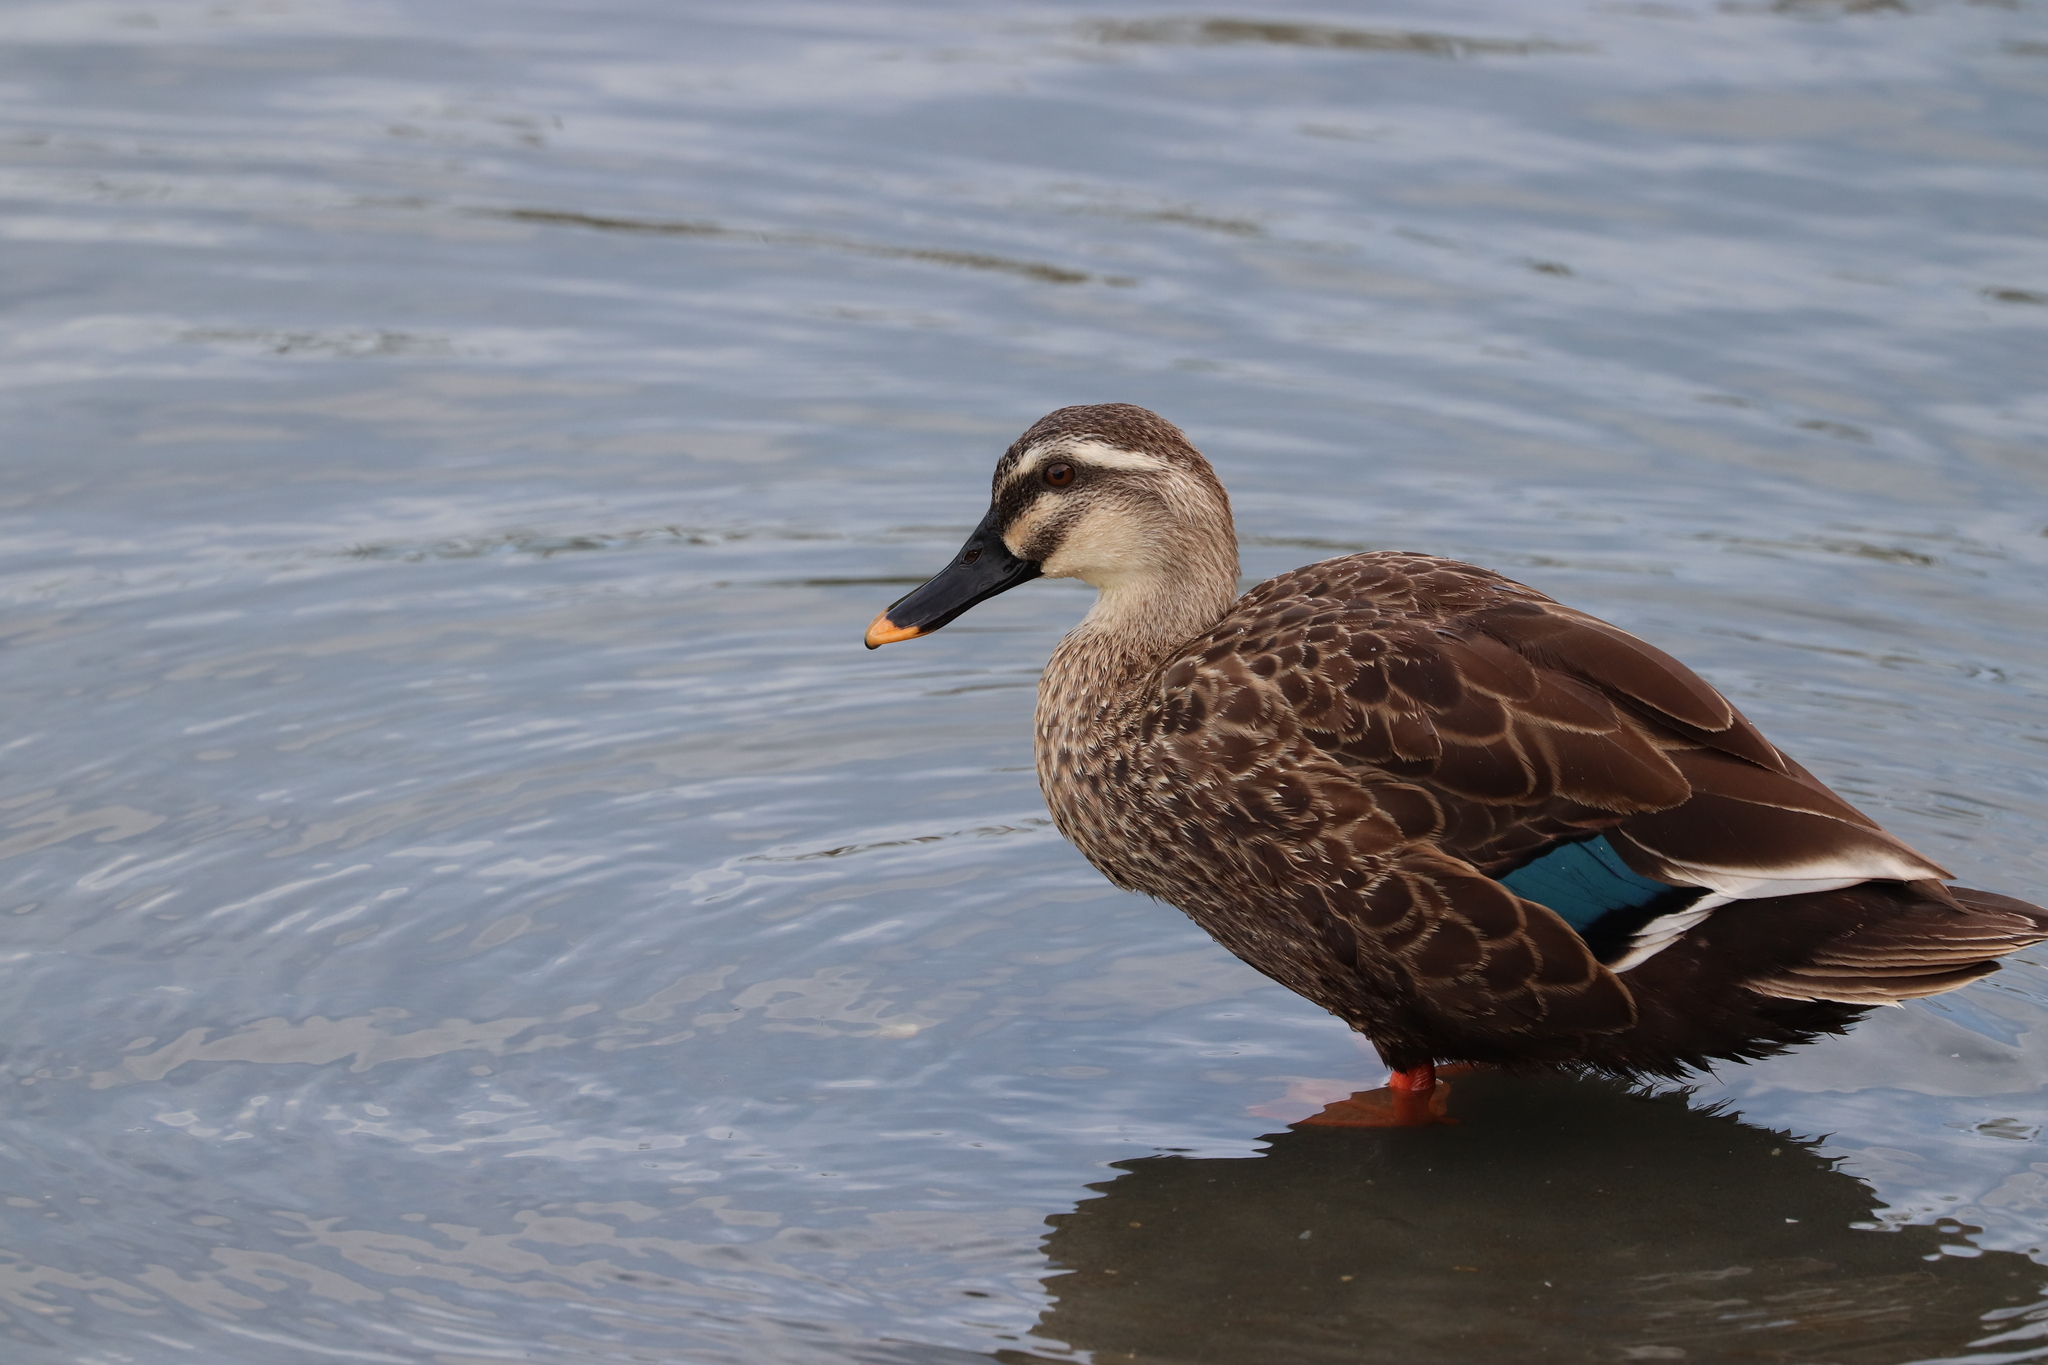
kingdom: Animalia
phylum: Chordata
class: Aves
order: Anseriformes
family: Anatidae
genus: Anas
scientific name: Anas zonorhyncha
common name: Eastern spot-billed duck
